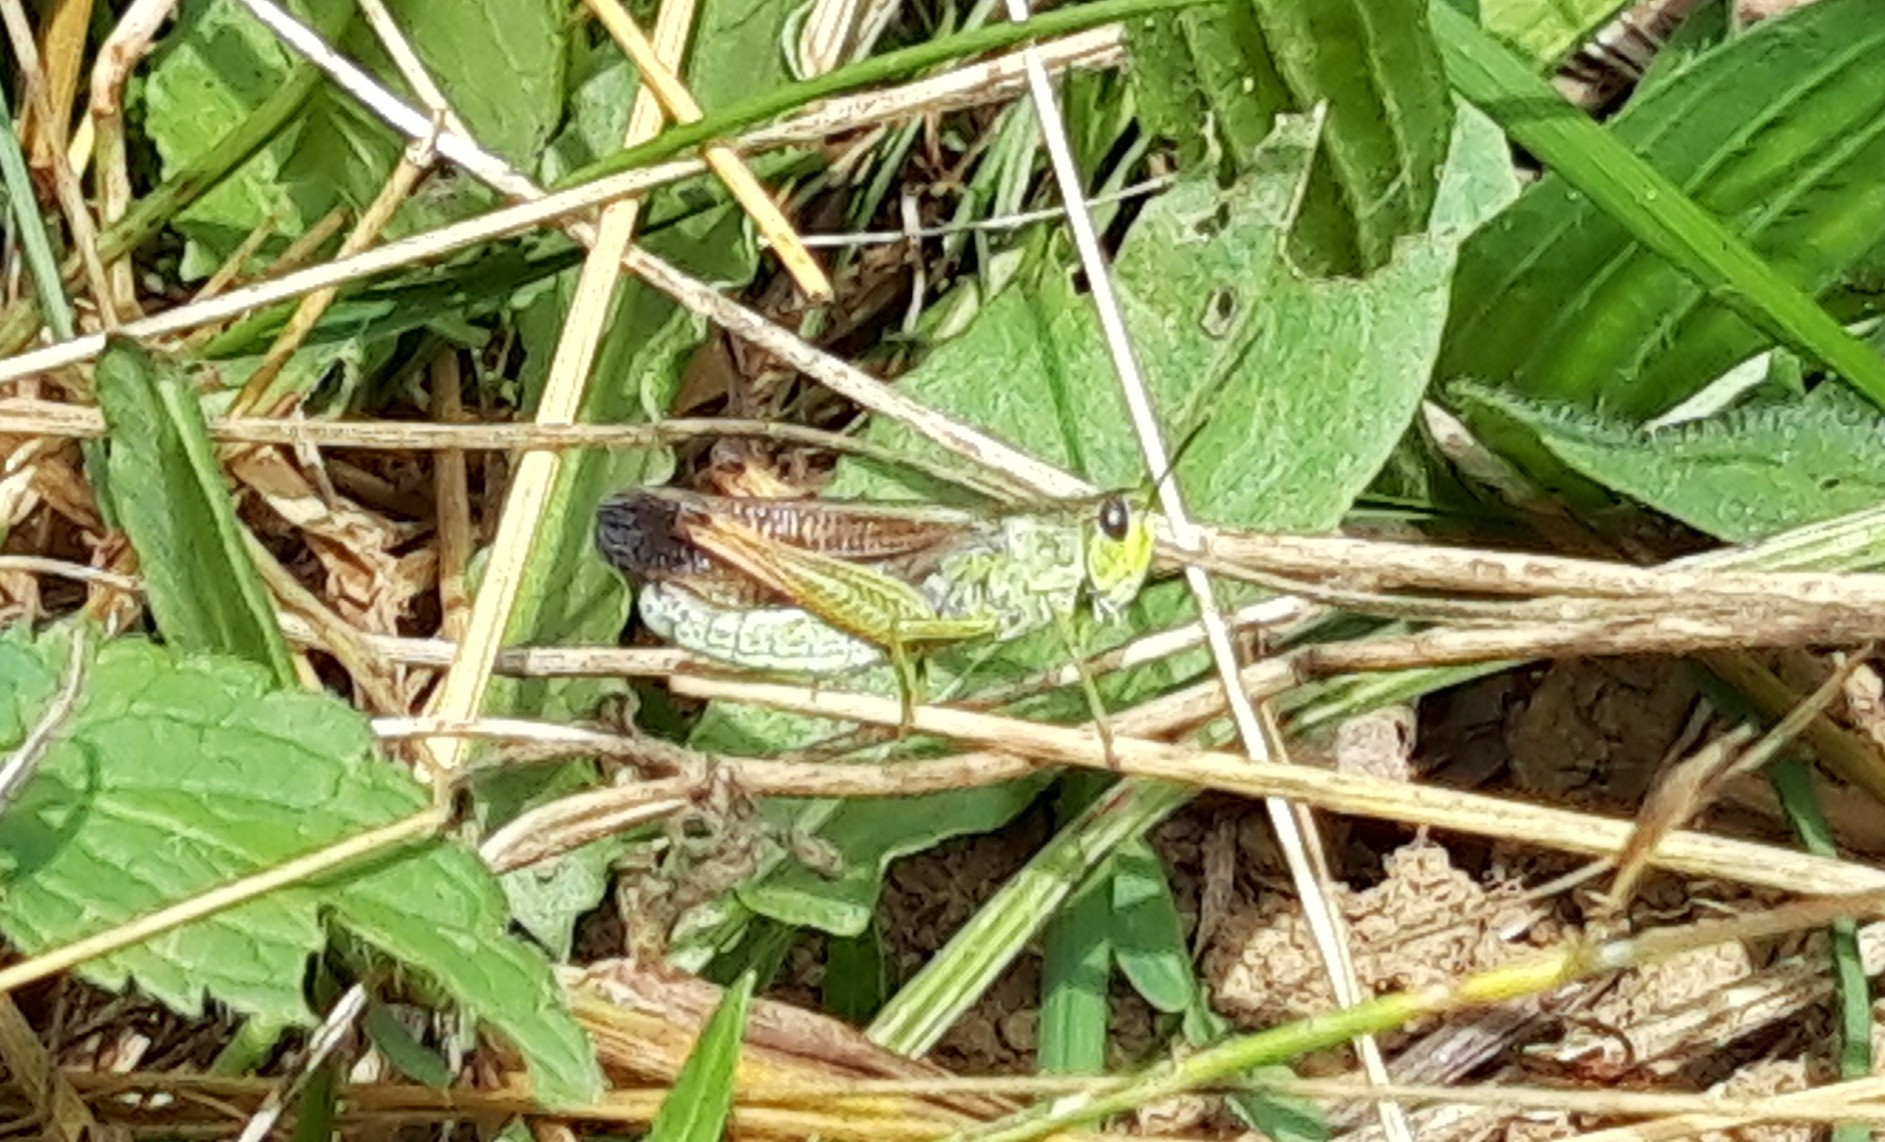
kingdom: Animalia
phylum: Arthropoda
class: Insecta
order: Orthoptera
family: Acrididae
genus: Stauroderus
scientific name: Stauroderus scalaris
